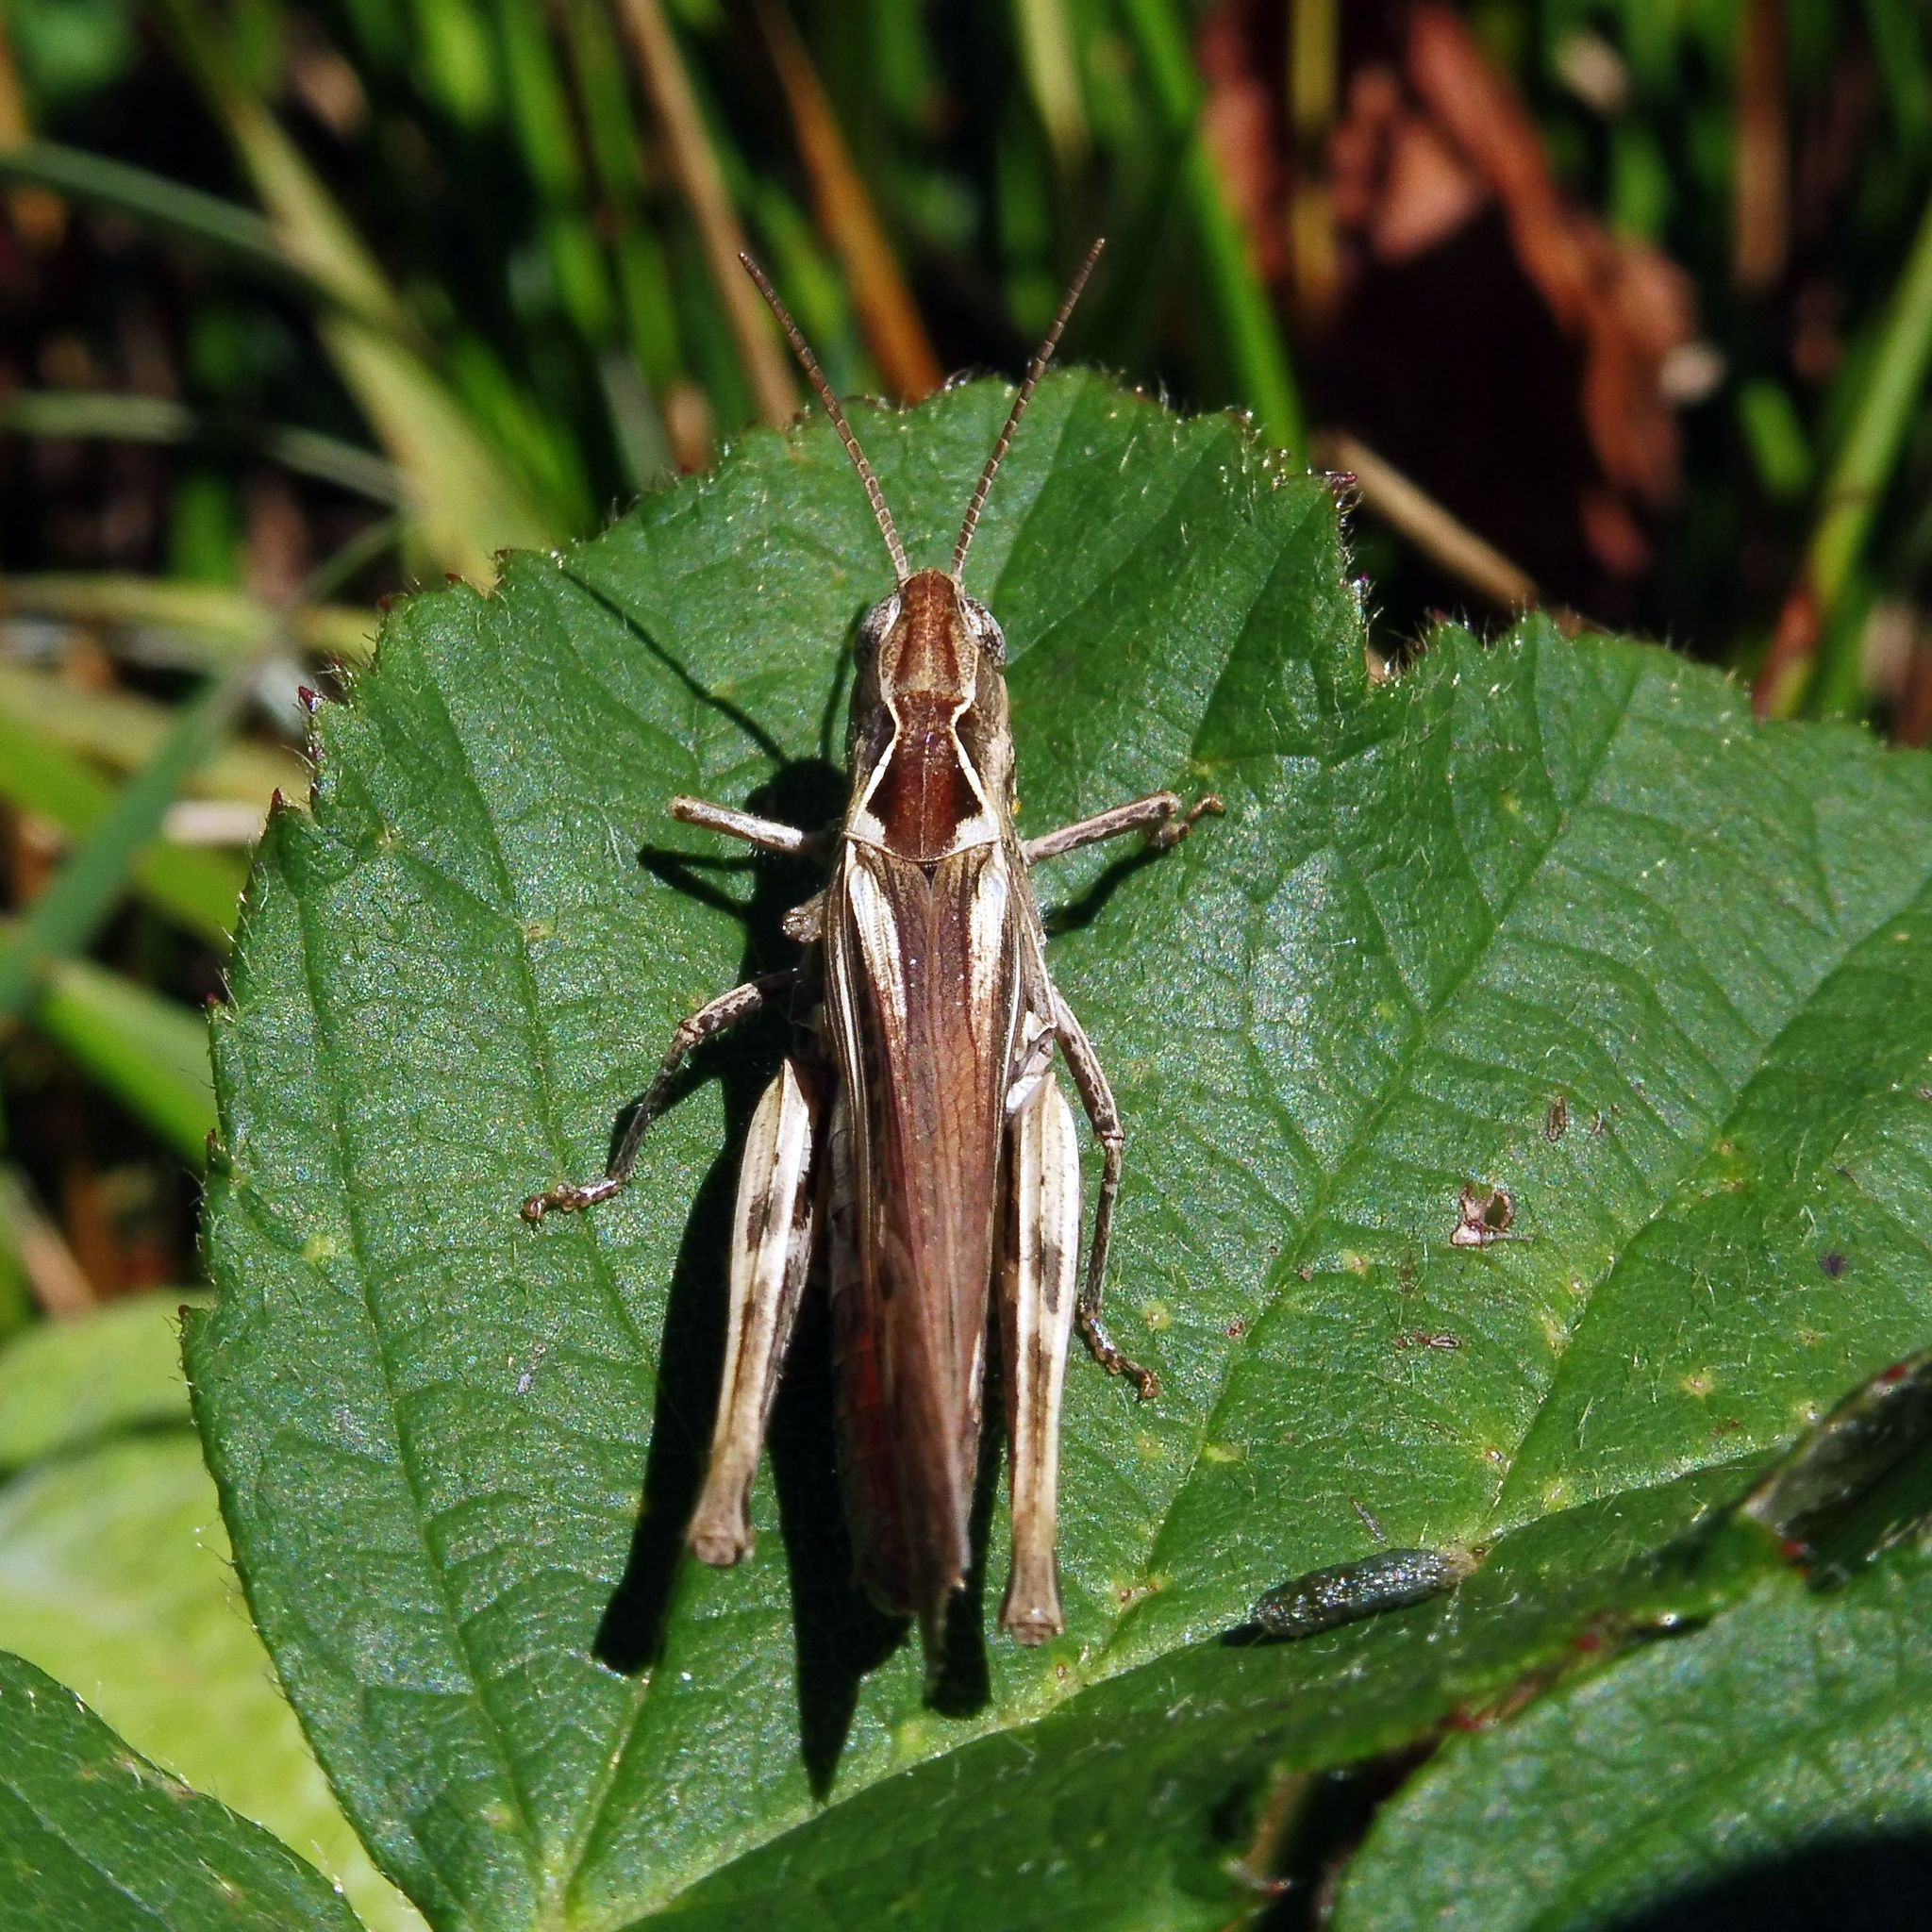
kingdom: Animalia
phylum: Arthropoda
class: Insecta
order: Orthoptera
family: Acrididae
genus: Chorthippus
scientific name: Chorthippus brunneus
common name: Field grasshopper
